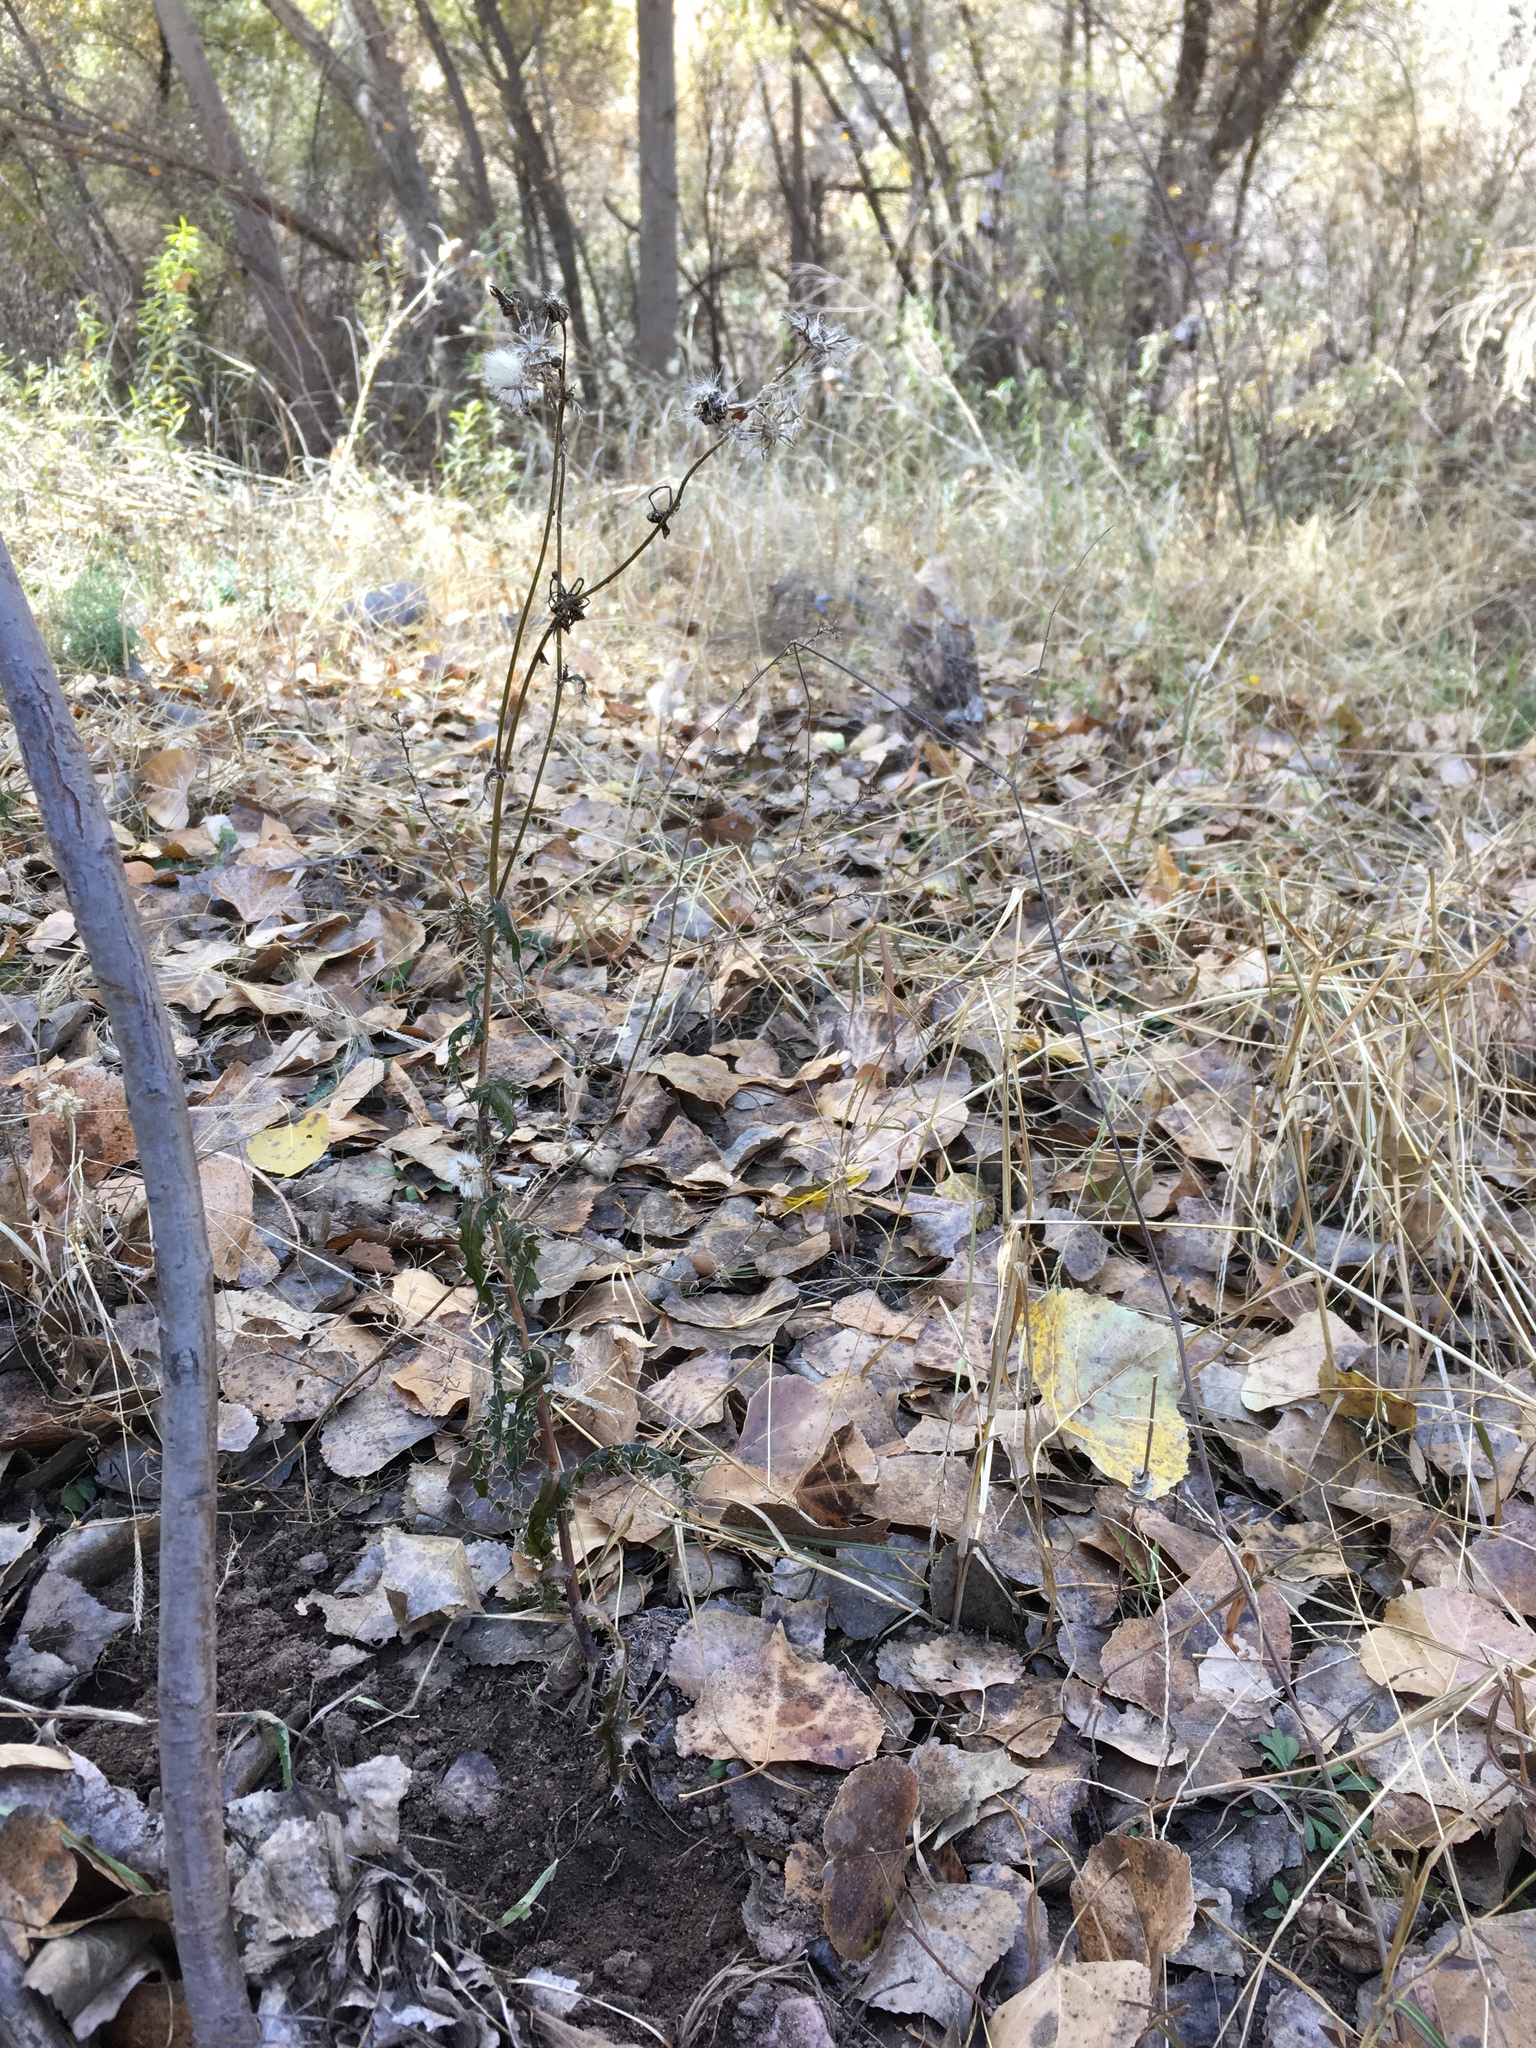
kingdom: Plantae
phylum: Tracheophyta
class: Magnoliopsida
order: Asterales
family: Asteraceae
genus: Sonchus
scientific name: Sonchus asper
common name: Prickly sow-thistle
